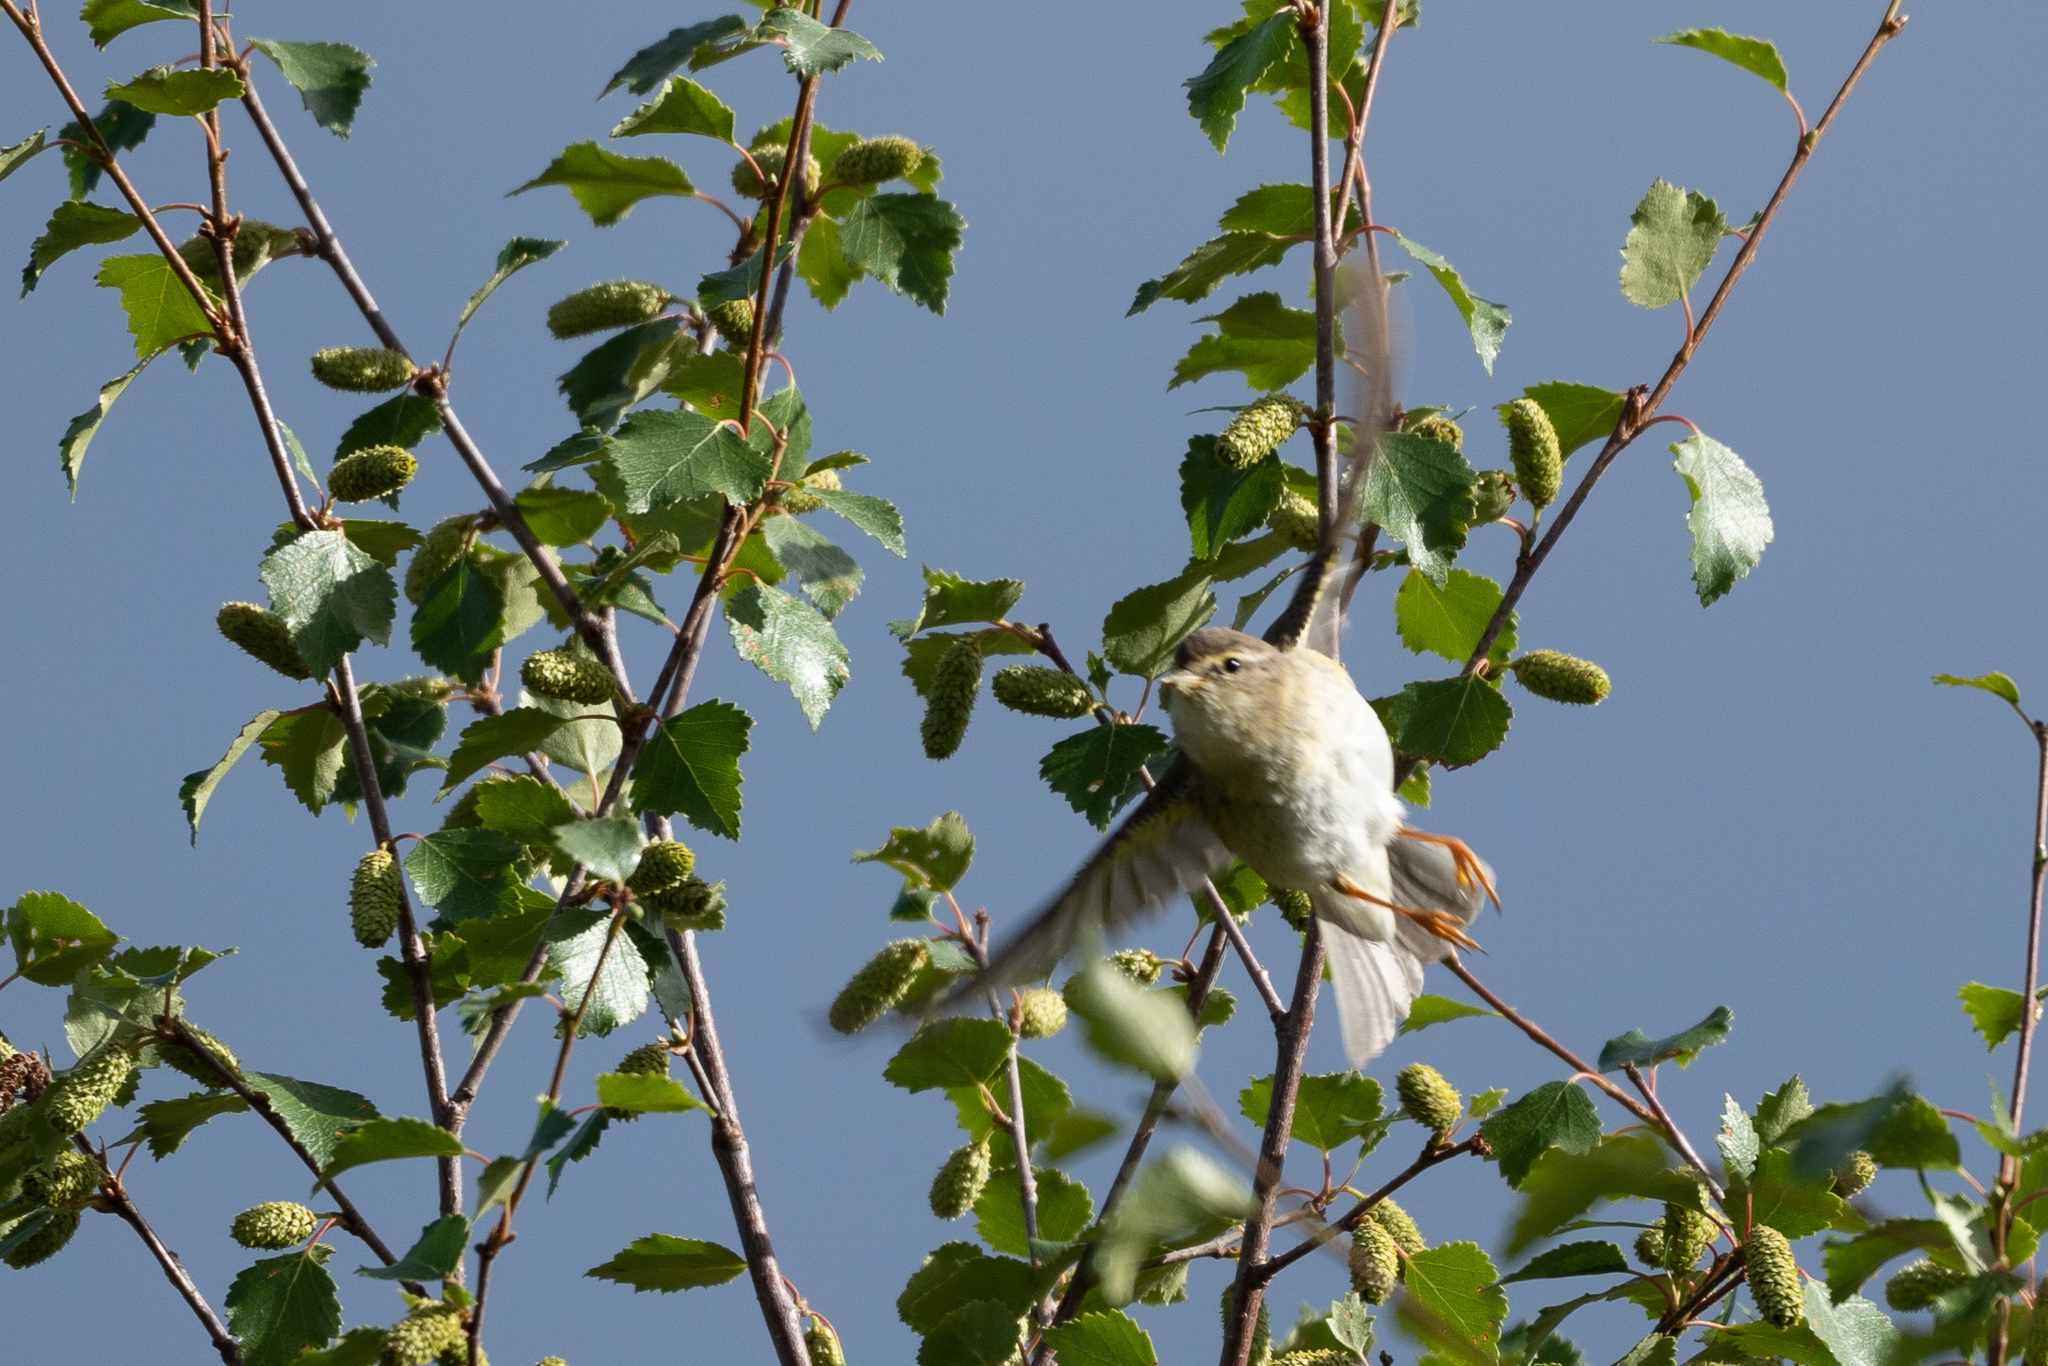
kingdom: Animalia
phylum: Chordata
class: Aves
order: Passeriformes
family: Phylloscopidae
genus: Phylloscopus
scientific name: Phylloscopus trochilus
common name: Willow warbler
